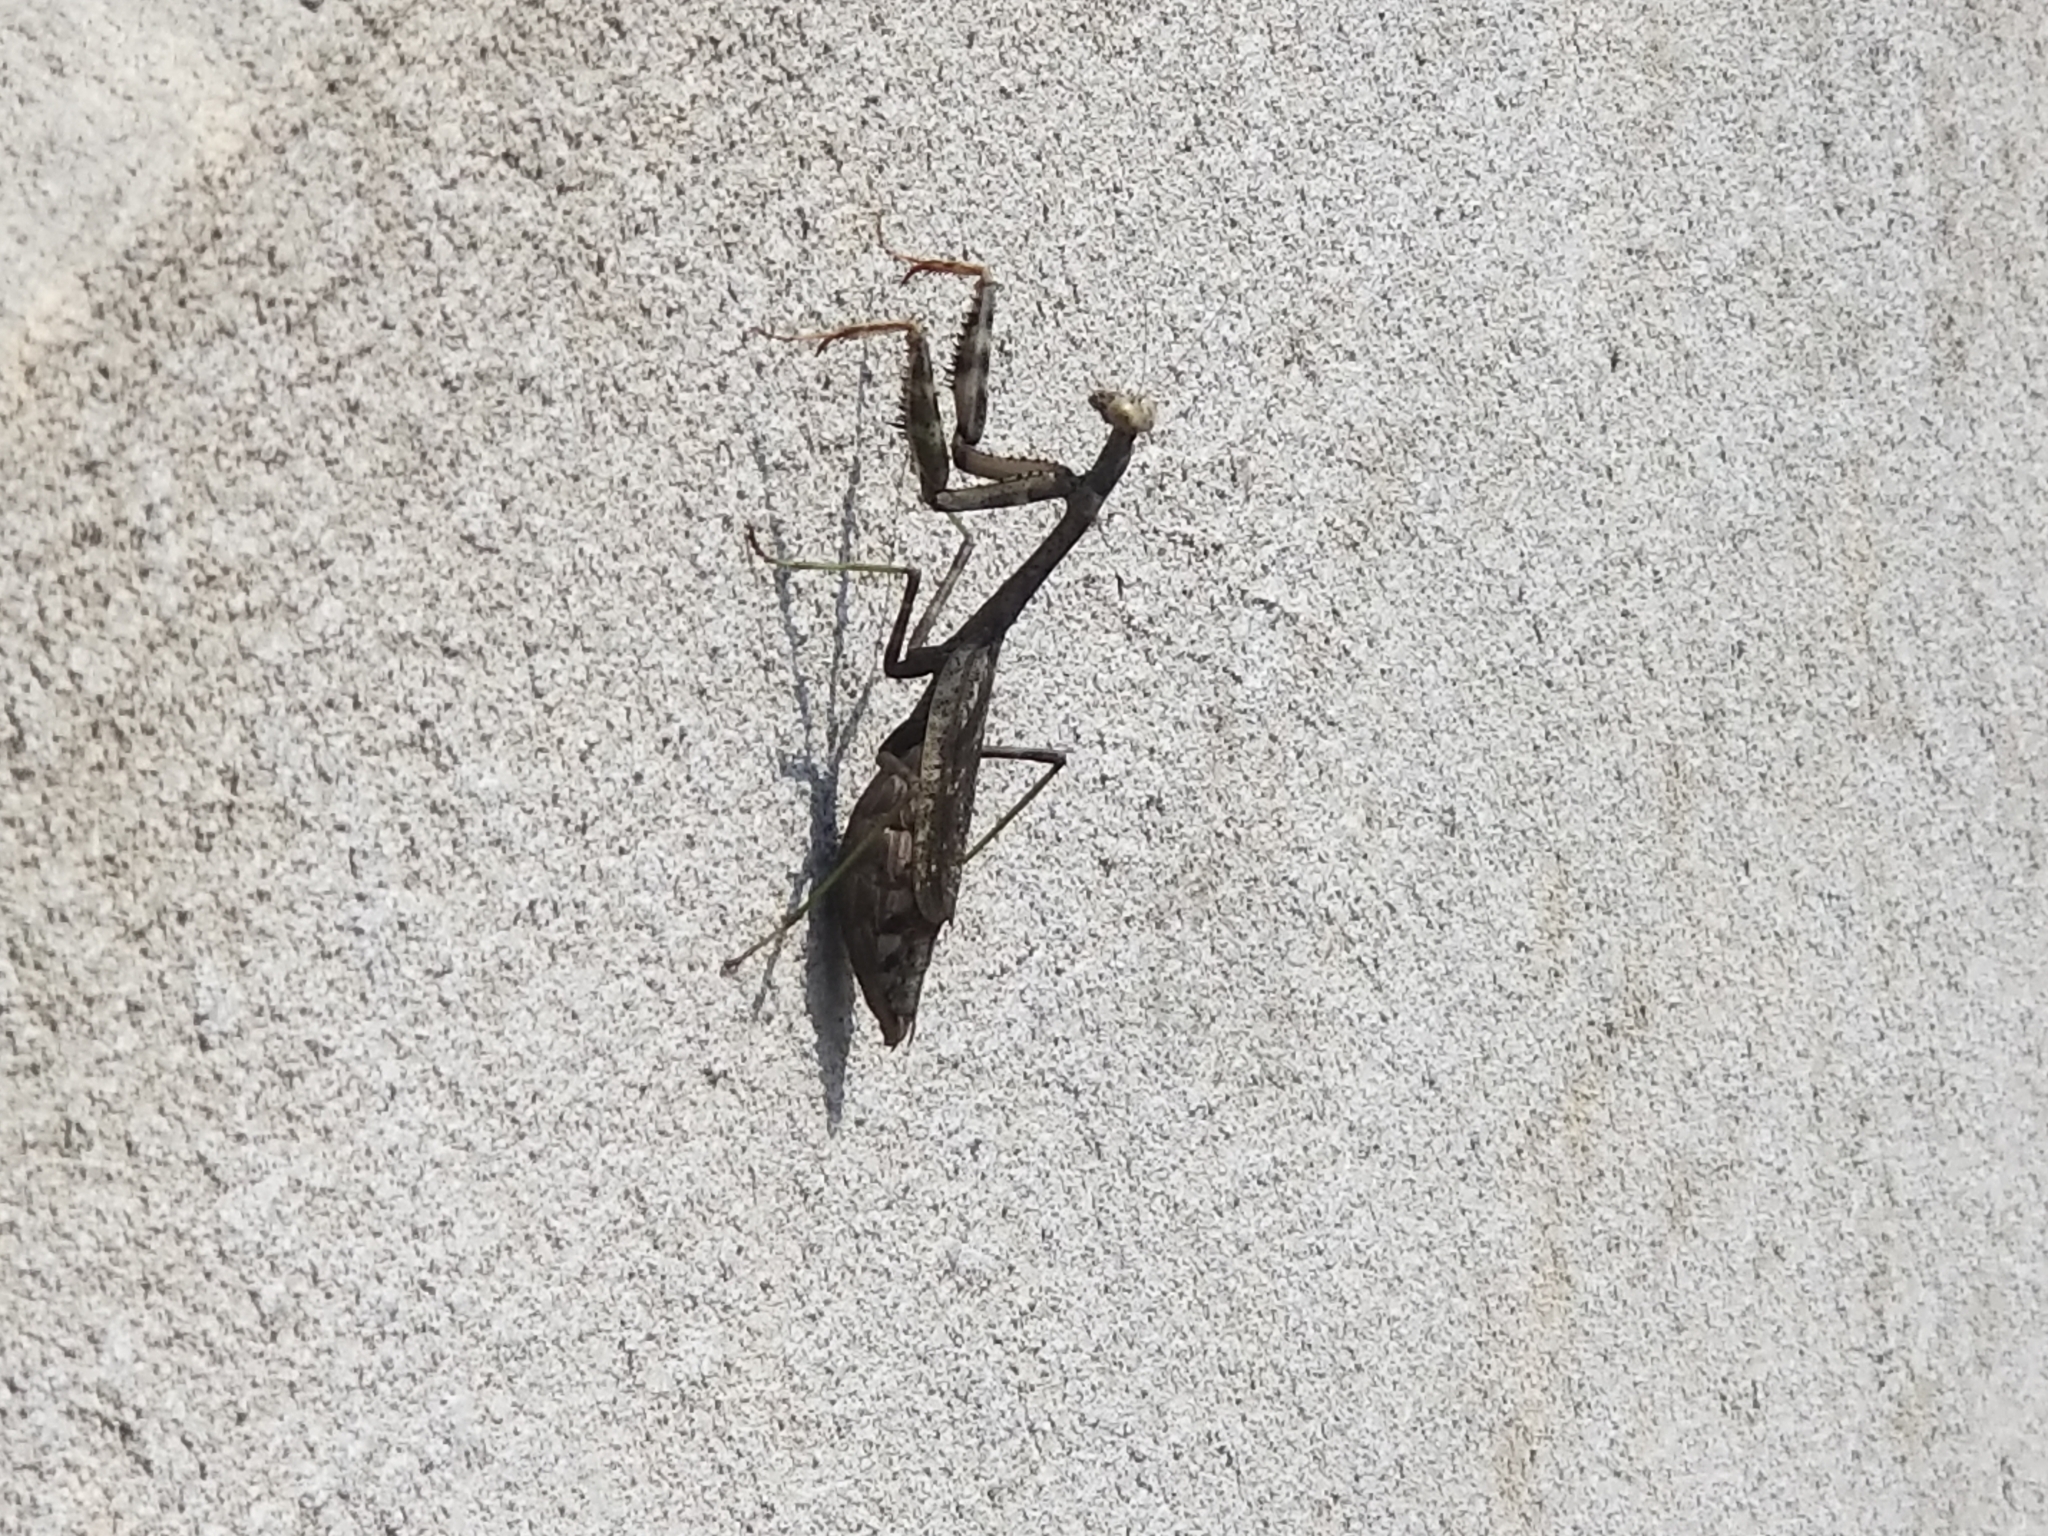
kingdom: Animalia
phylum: Arthropoda
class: Insecta
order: Mantodea
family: Mantidae
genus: Stagmomantis
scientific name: Stagmomantis carolina
